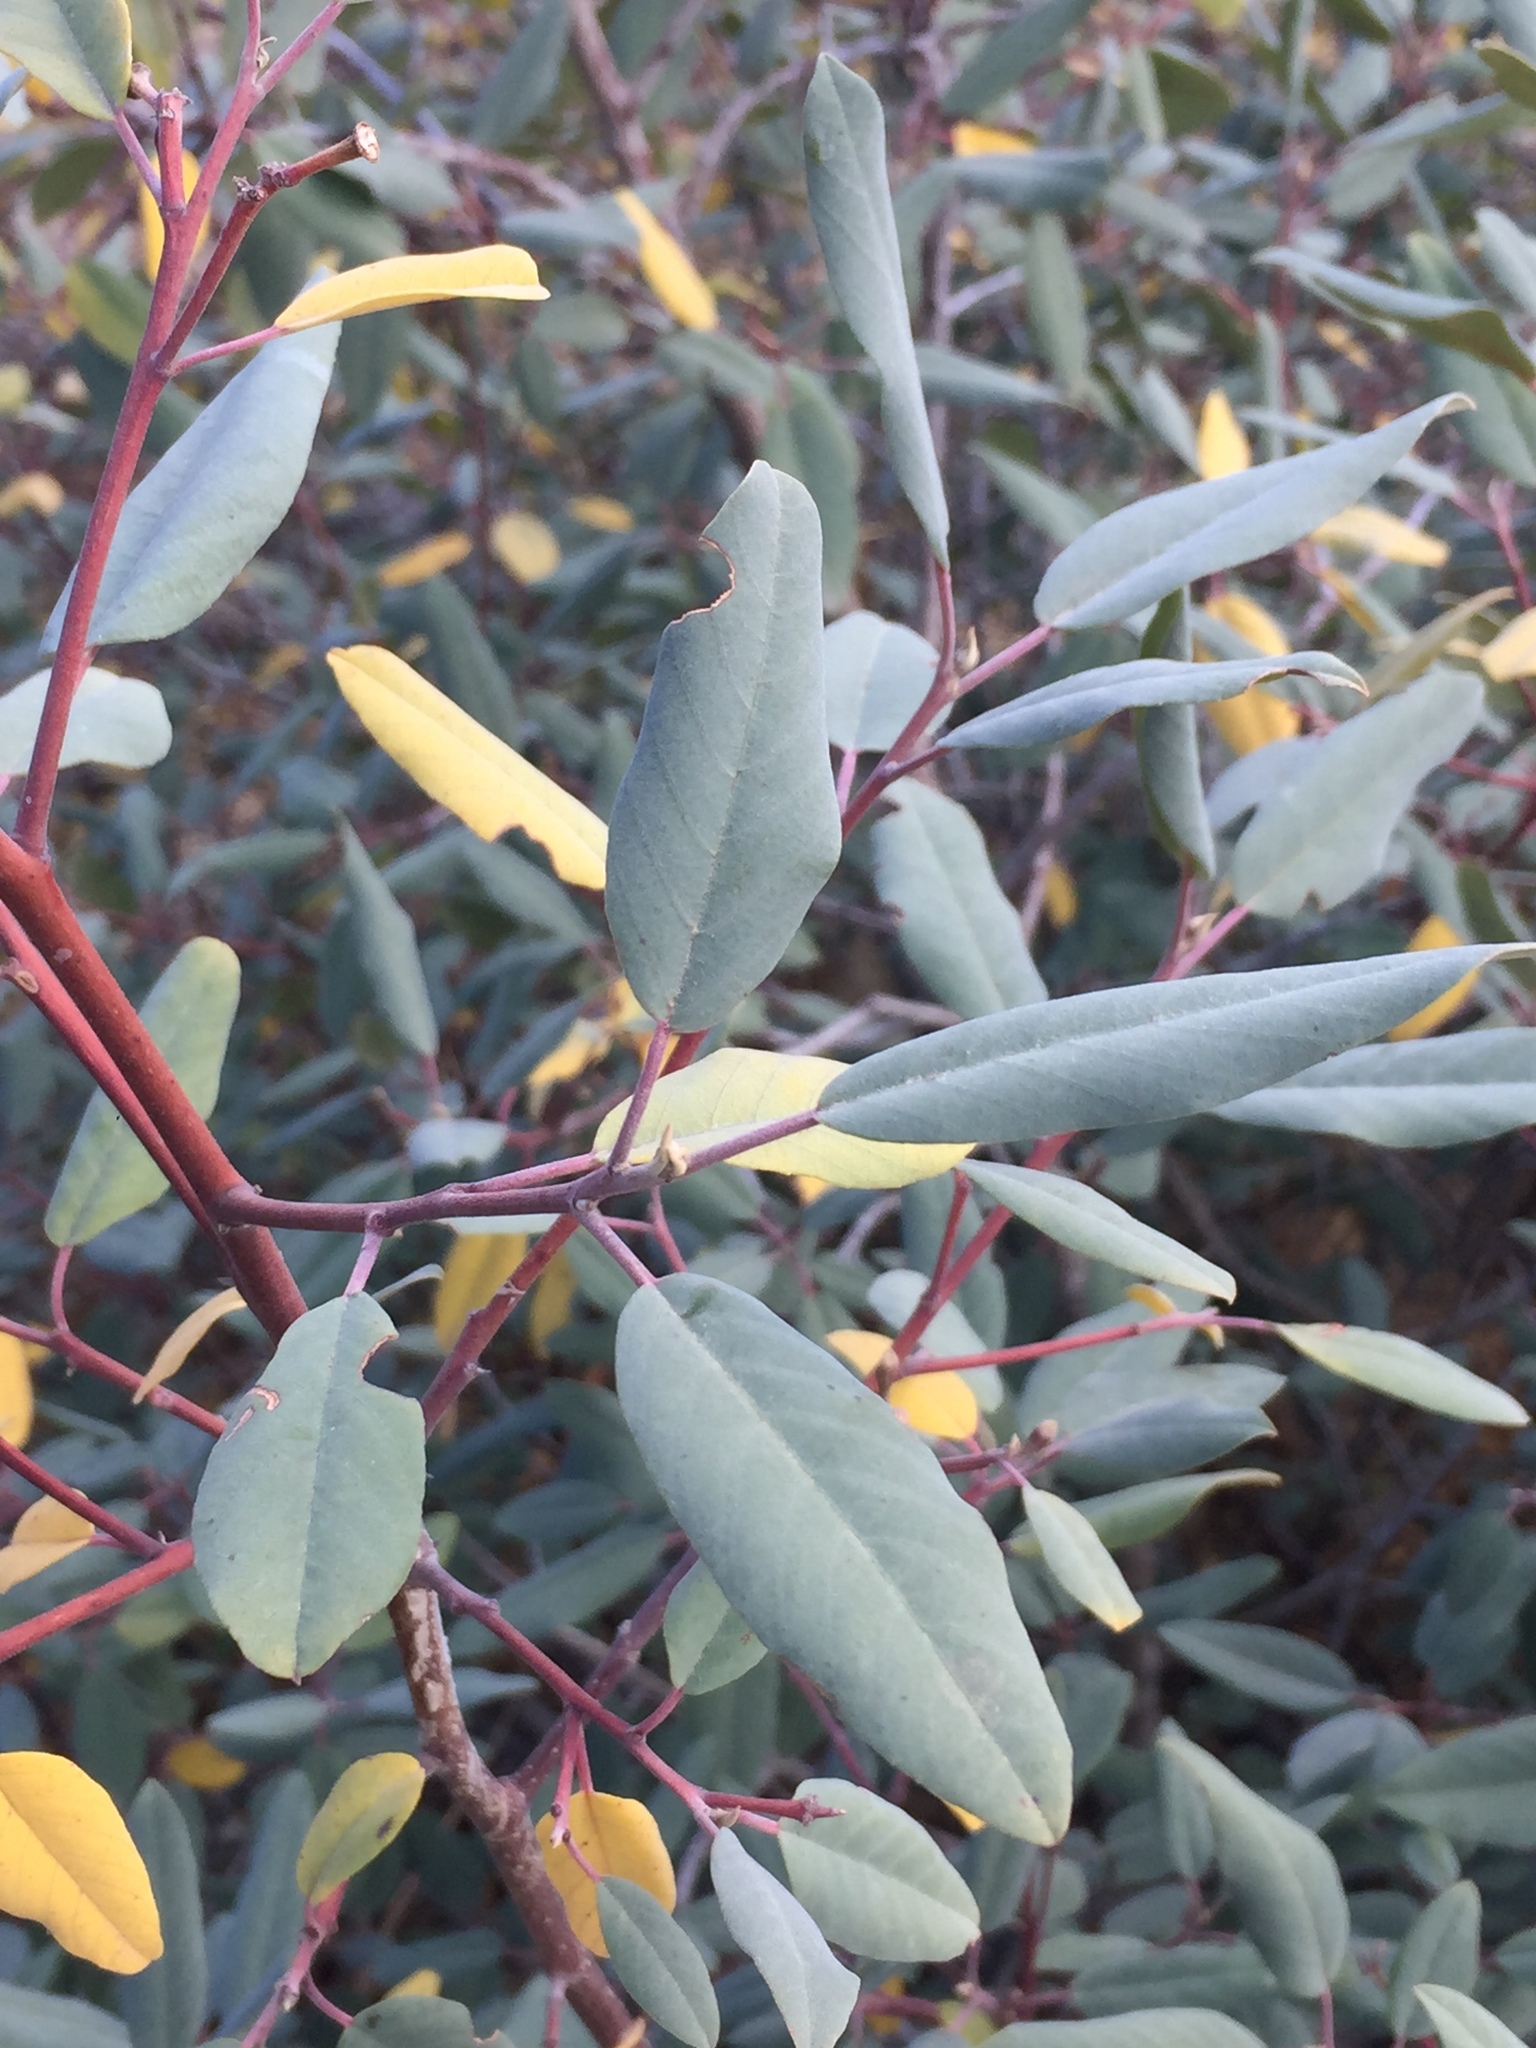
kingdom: Plantae
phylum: Tracheophyta
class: Magnoliopsida
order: Rosales
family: Rhamnaceae
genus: Frangula
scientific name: Frangula californica
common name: California buckthorn
